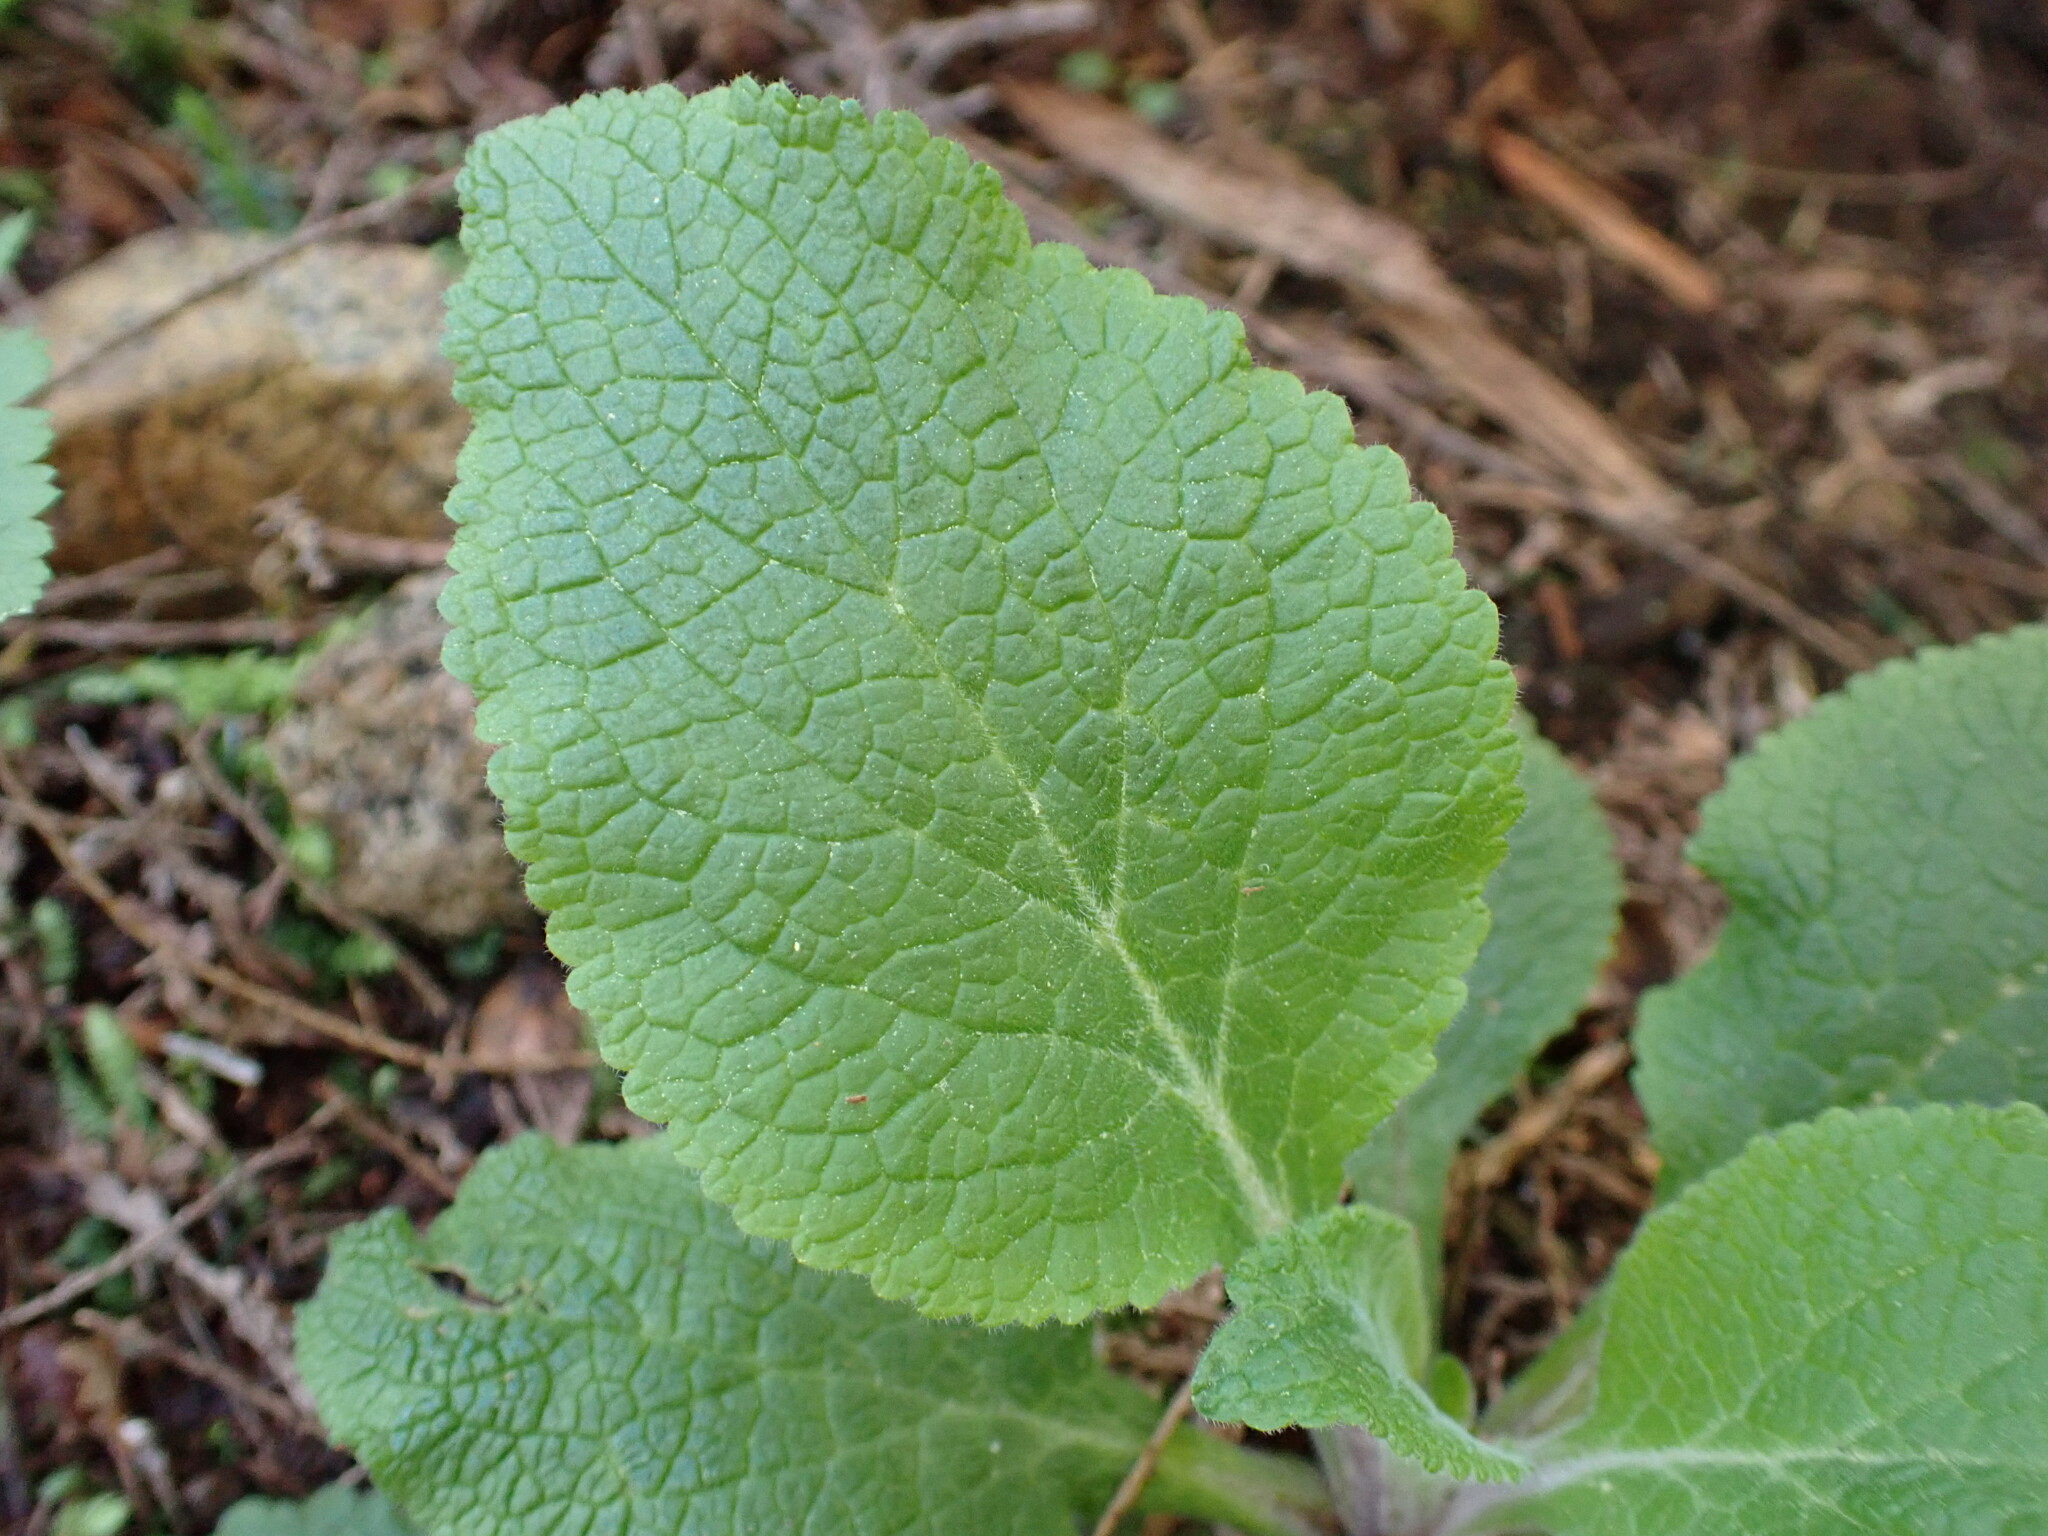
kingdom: Plantae
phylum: Tracheophyta
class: Magnoliopsida
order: Lamiales
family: Plantaginaceae
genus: Digitalis
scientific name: Digitalis purpurea
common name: Foxglove
